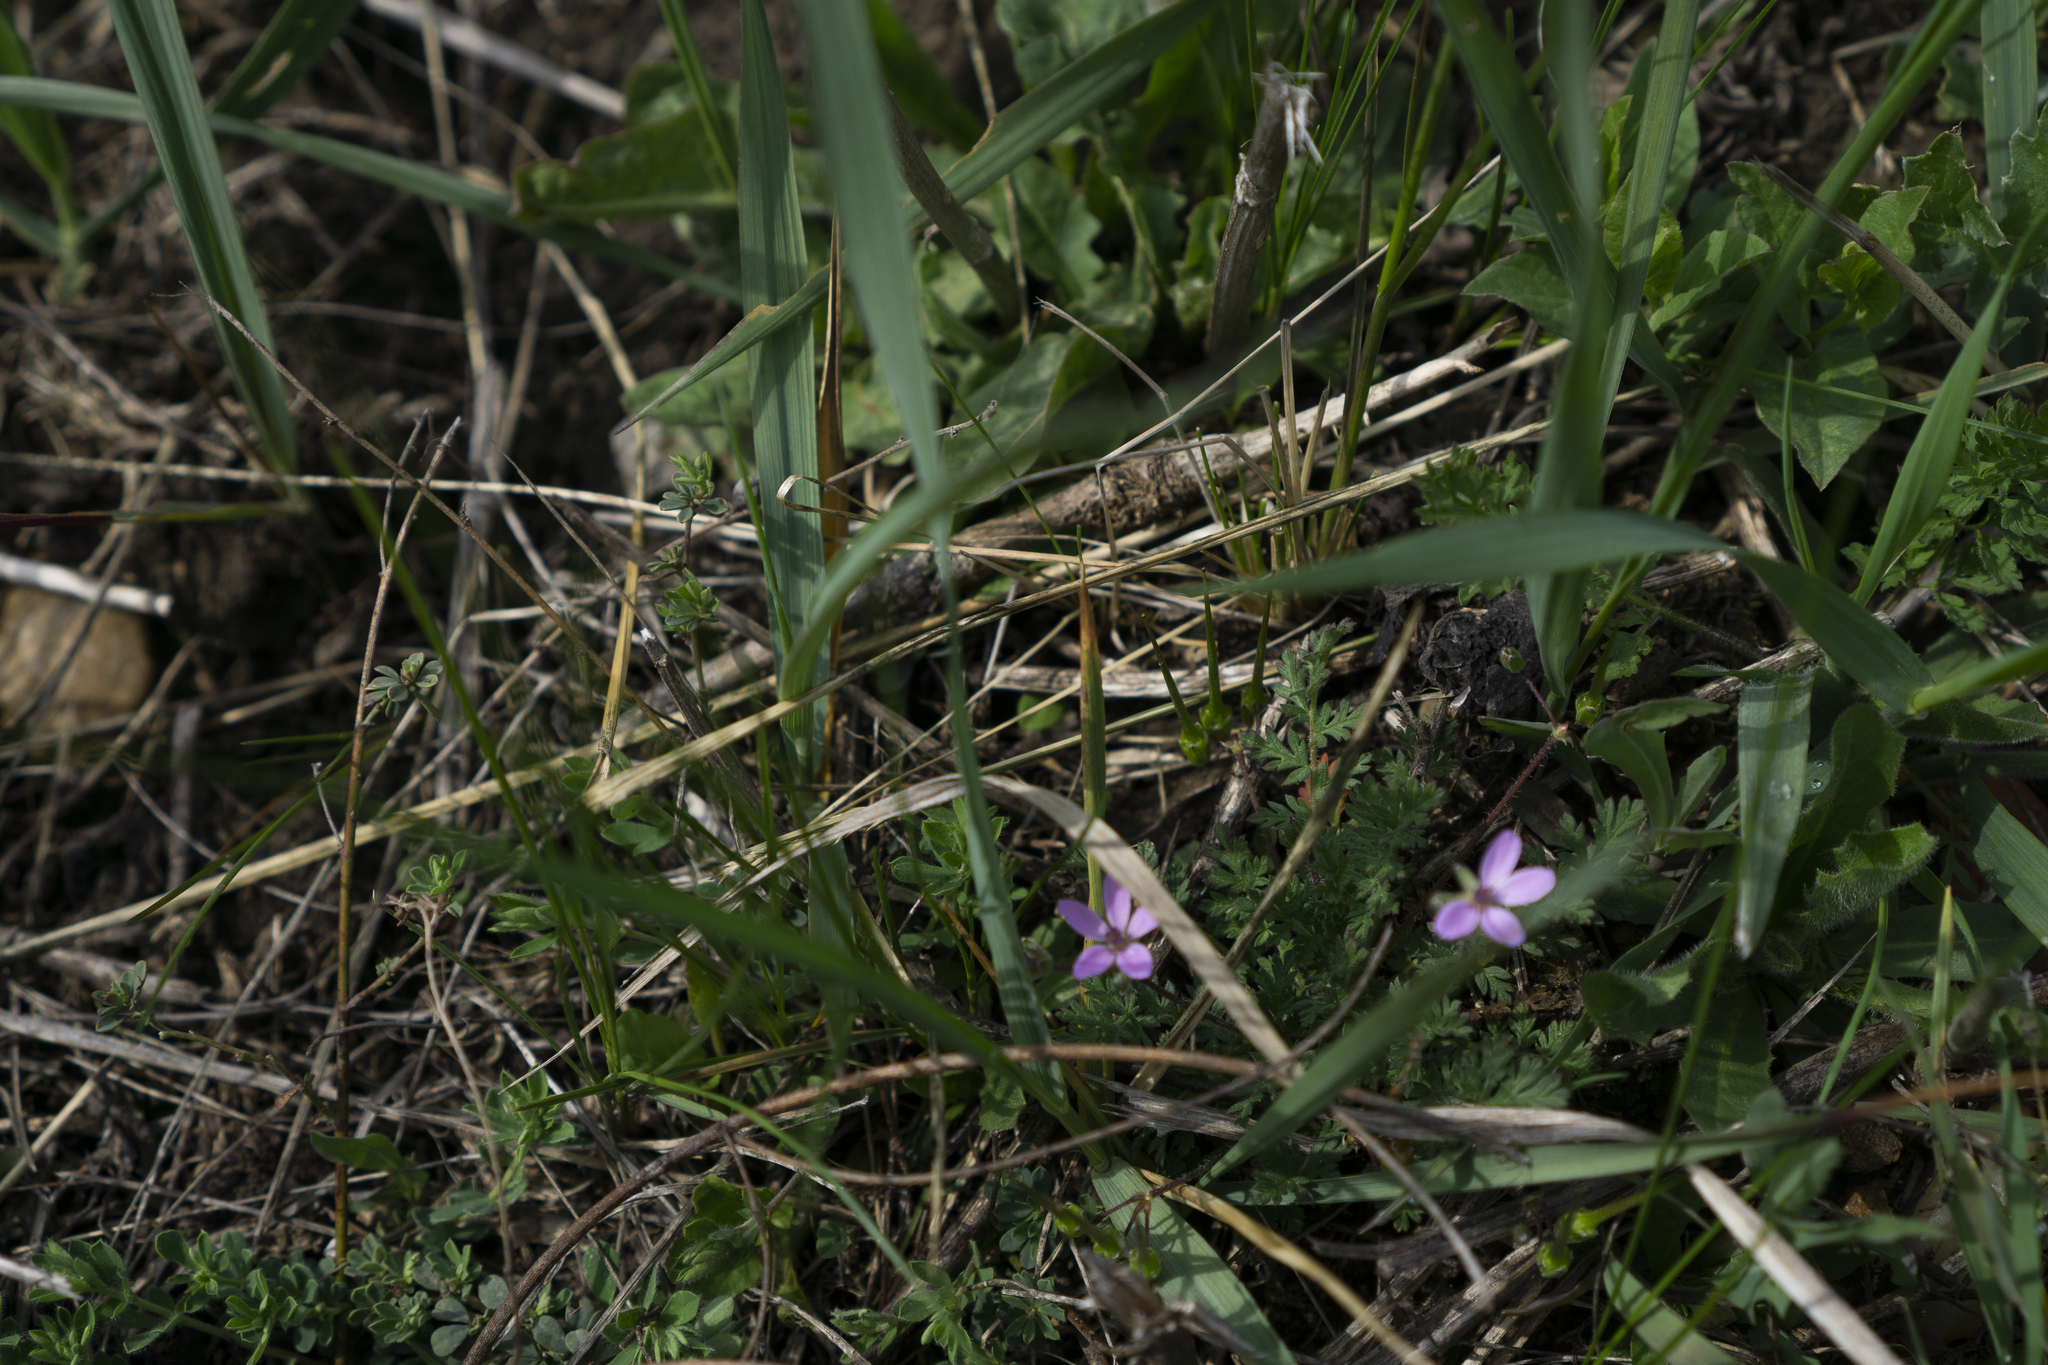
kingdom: Plantae
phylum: Tracheophyta
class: Magnoliopsida
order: Geraniales
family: Geraniaceae
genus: Erodium
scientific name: Erodium cicutarium
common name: Common stork's-bill
